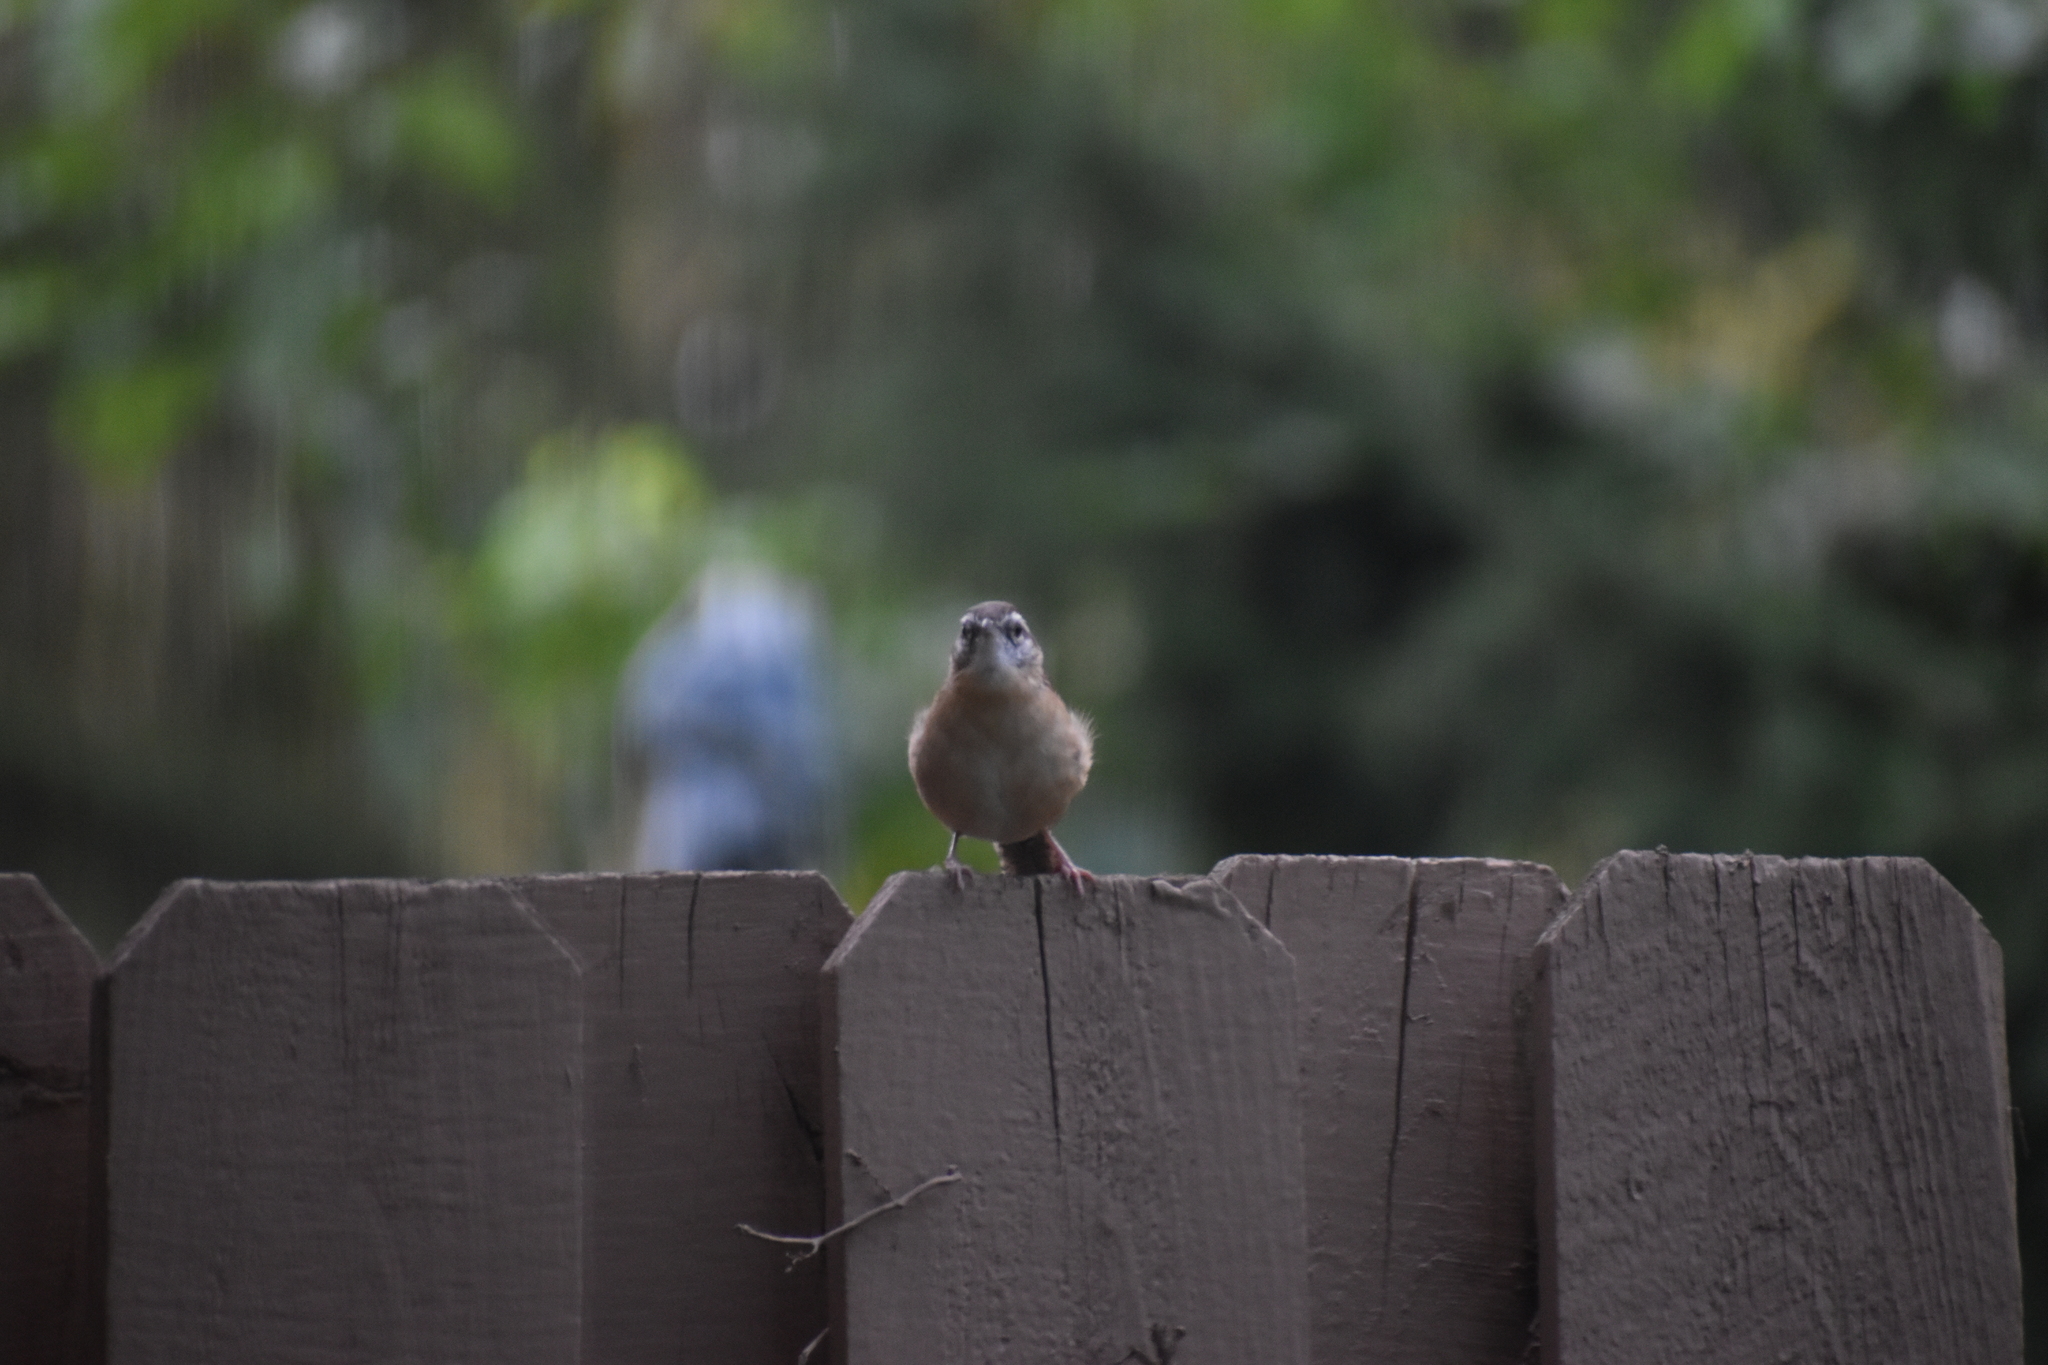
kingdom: Animalia
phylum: Chordata
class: Aves
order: Passeriformes
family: Troglodytidae
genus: Thryothorus
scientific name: Thryothorus ludovicianus
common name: Carolina wren
